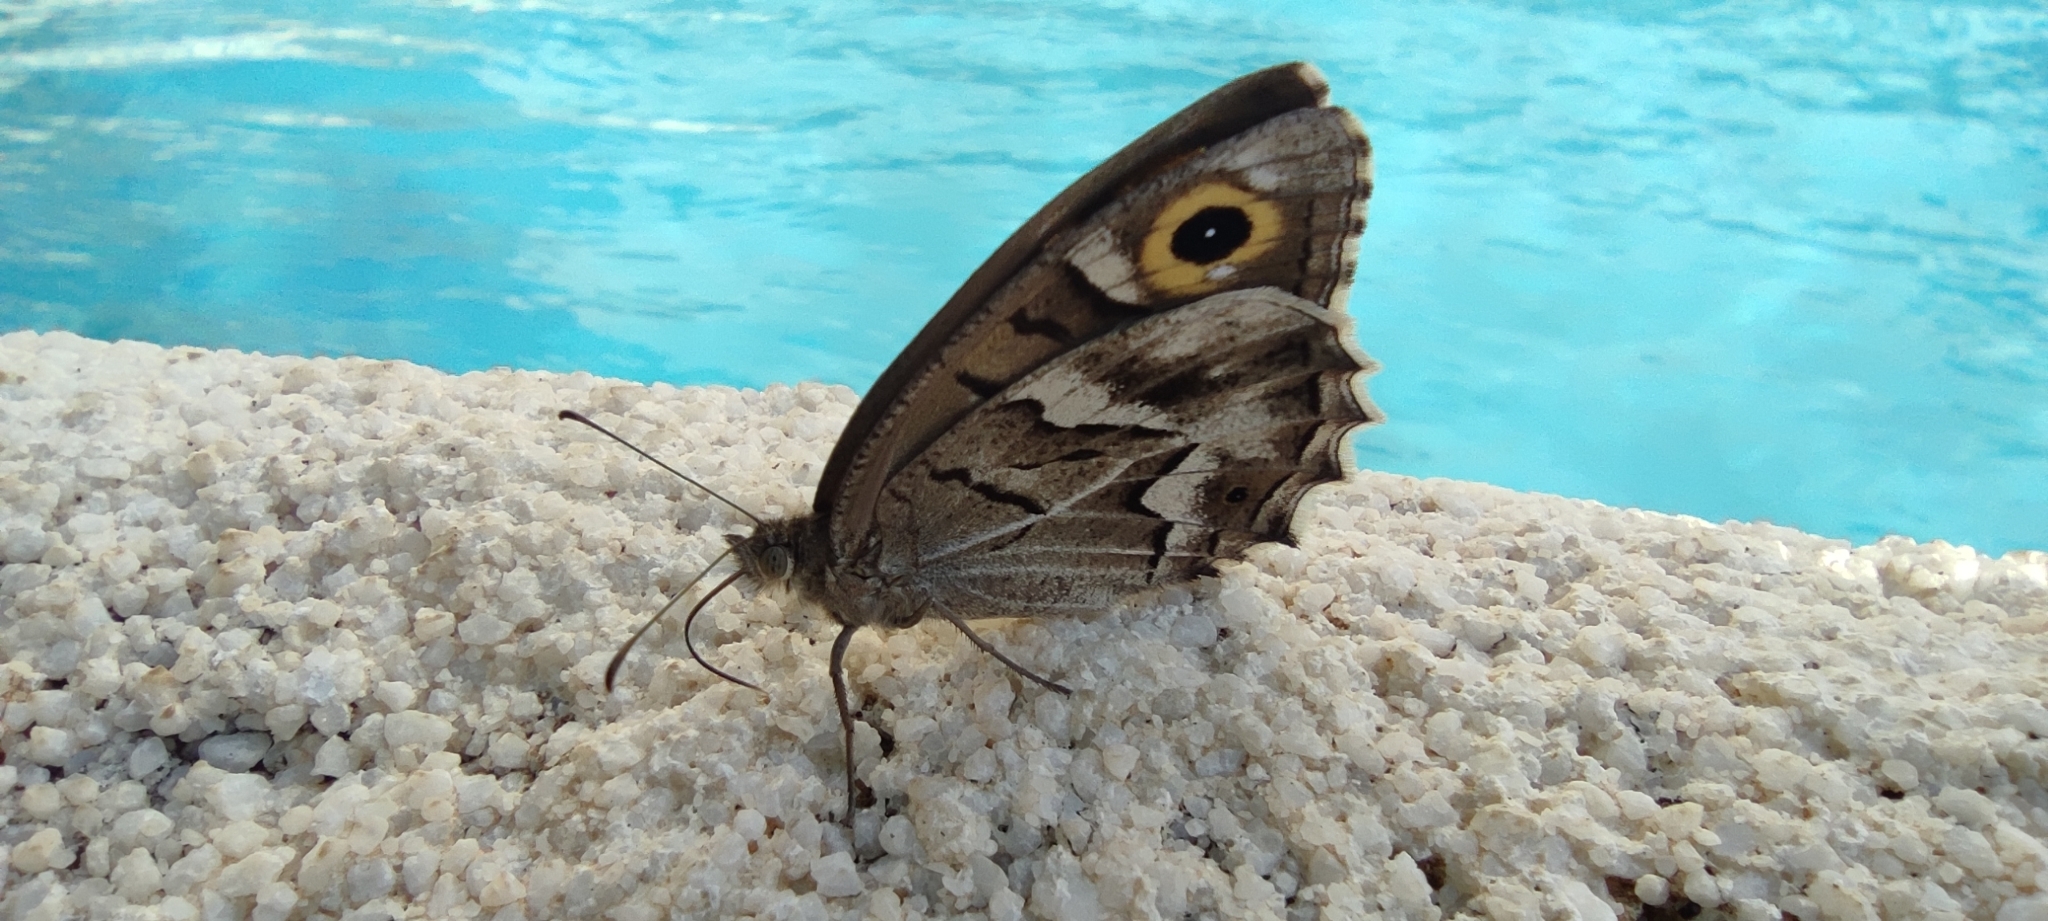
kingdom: Animalia
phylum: Arthropoda
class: Insecta
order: Lepidoptera
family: Nymphalidae
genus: Hipparchia
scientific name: Hipparchia fidia
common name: Striped grayling
